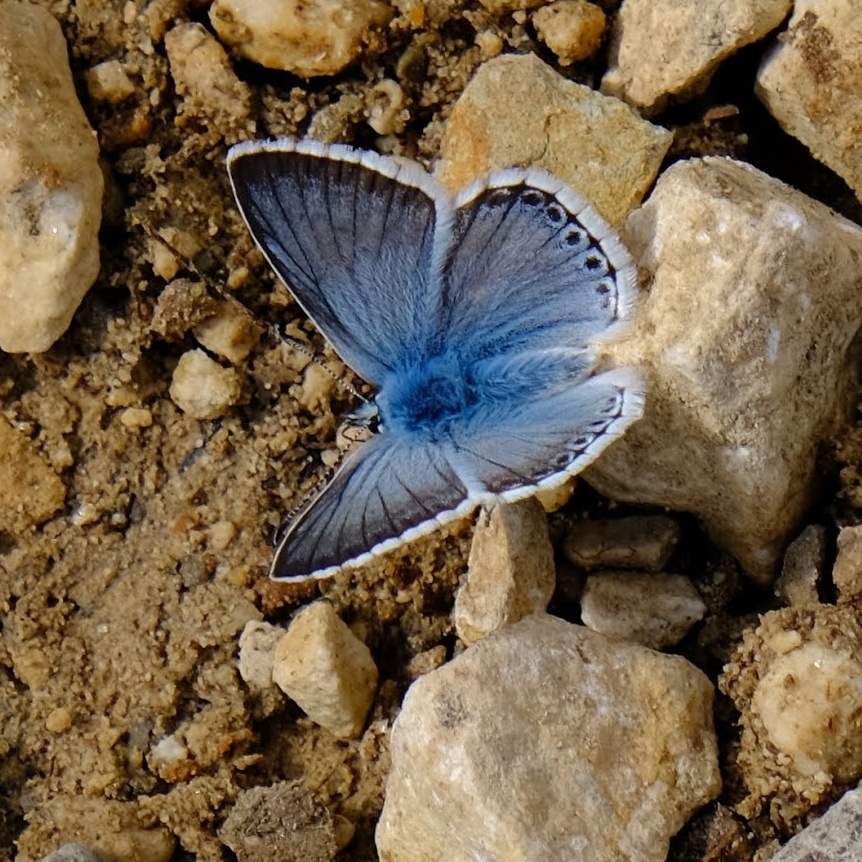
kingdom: Animalia
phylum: Arthropoda
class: Insecta
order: Lepidoptera
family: Lycaenidae
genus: Lysandra
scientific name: Lysandra coridon
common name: Chalkhill blue
